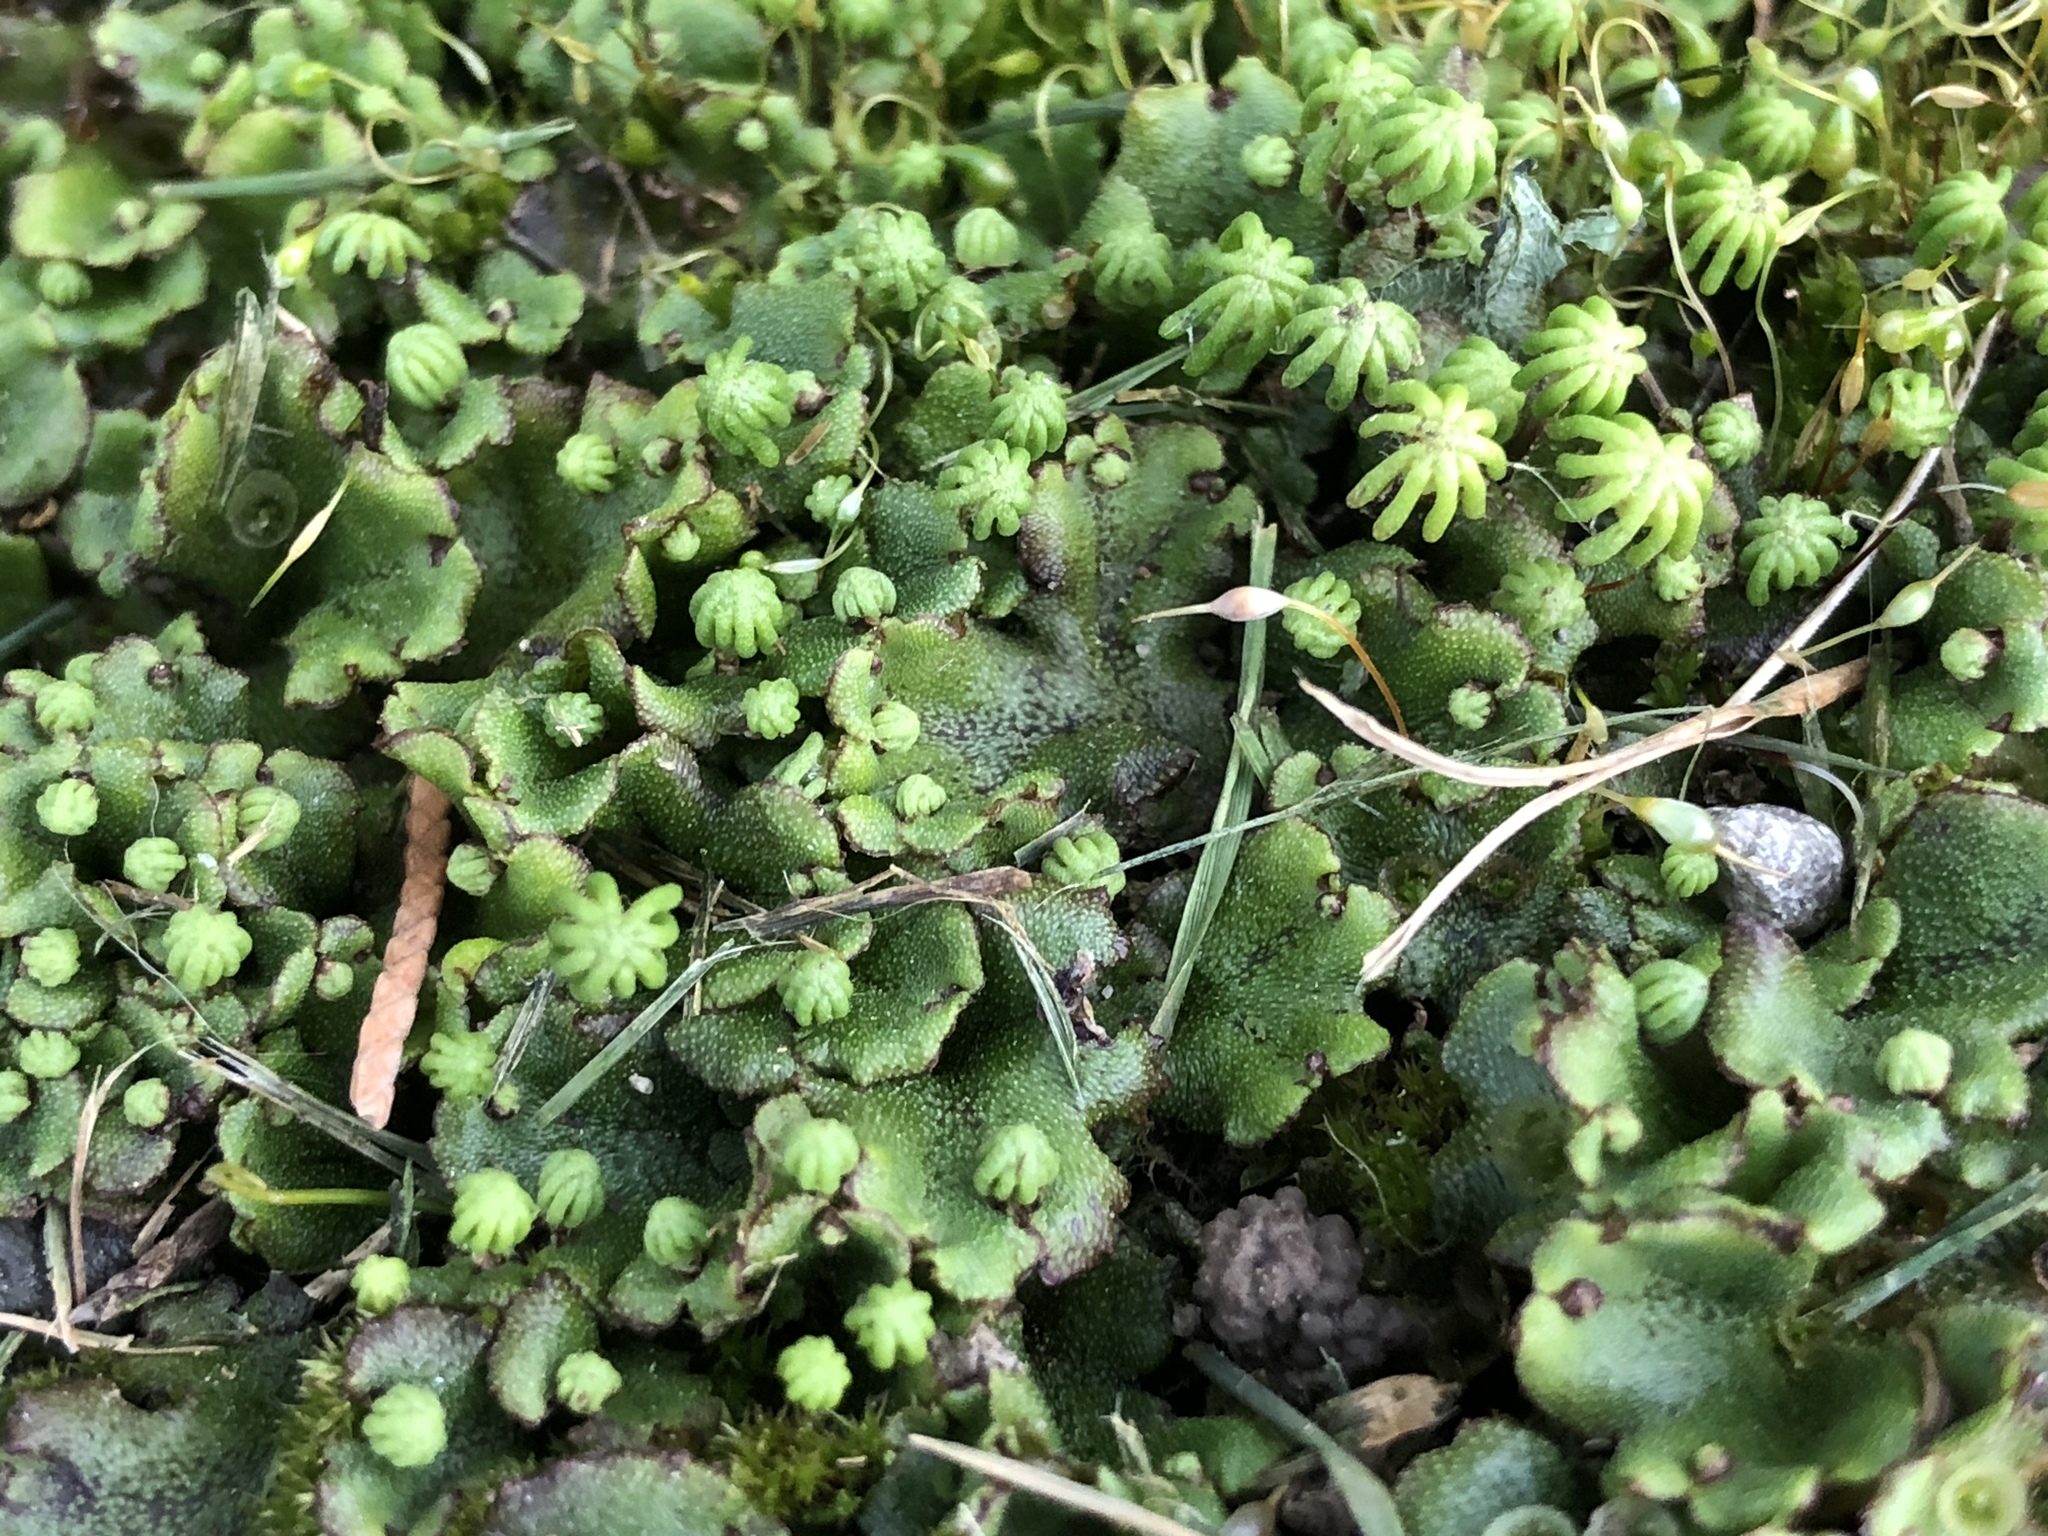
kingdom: Plantae
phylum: Marchantiophyta
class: Marchantiopsida
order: Marchantiales
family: Marchantiaceae
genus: Marchantia
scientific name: Marchantia polymorpha
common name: Common liverwort
